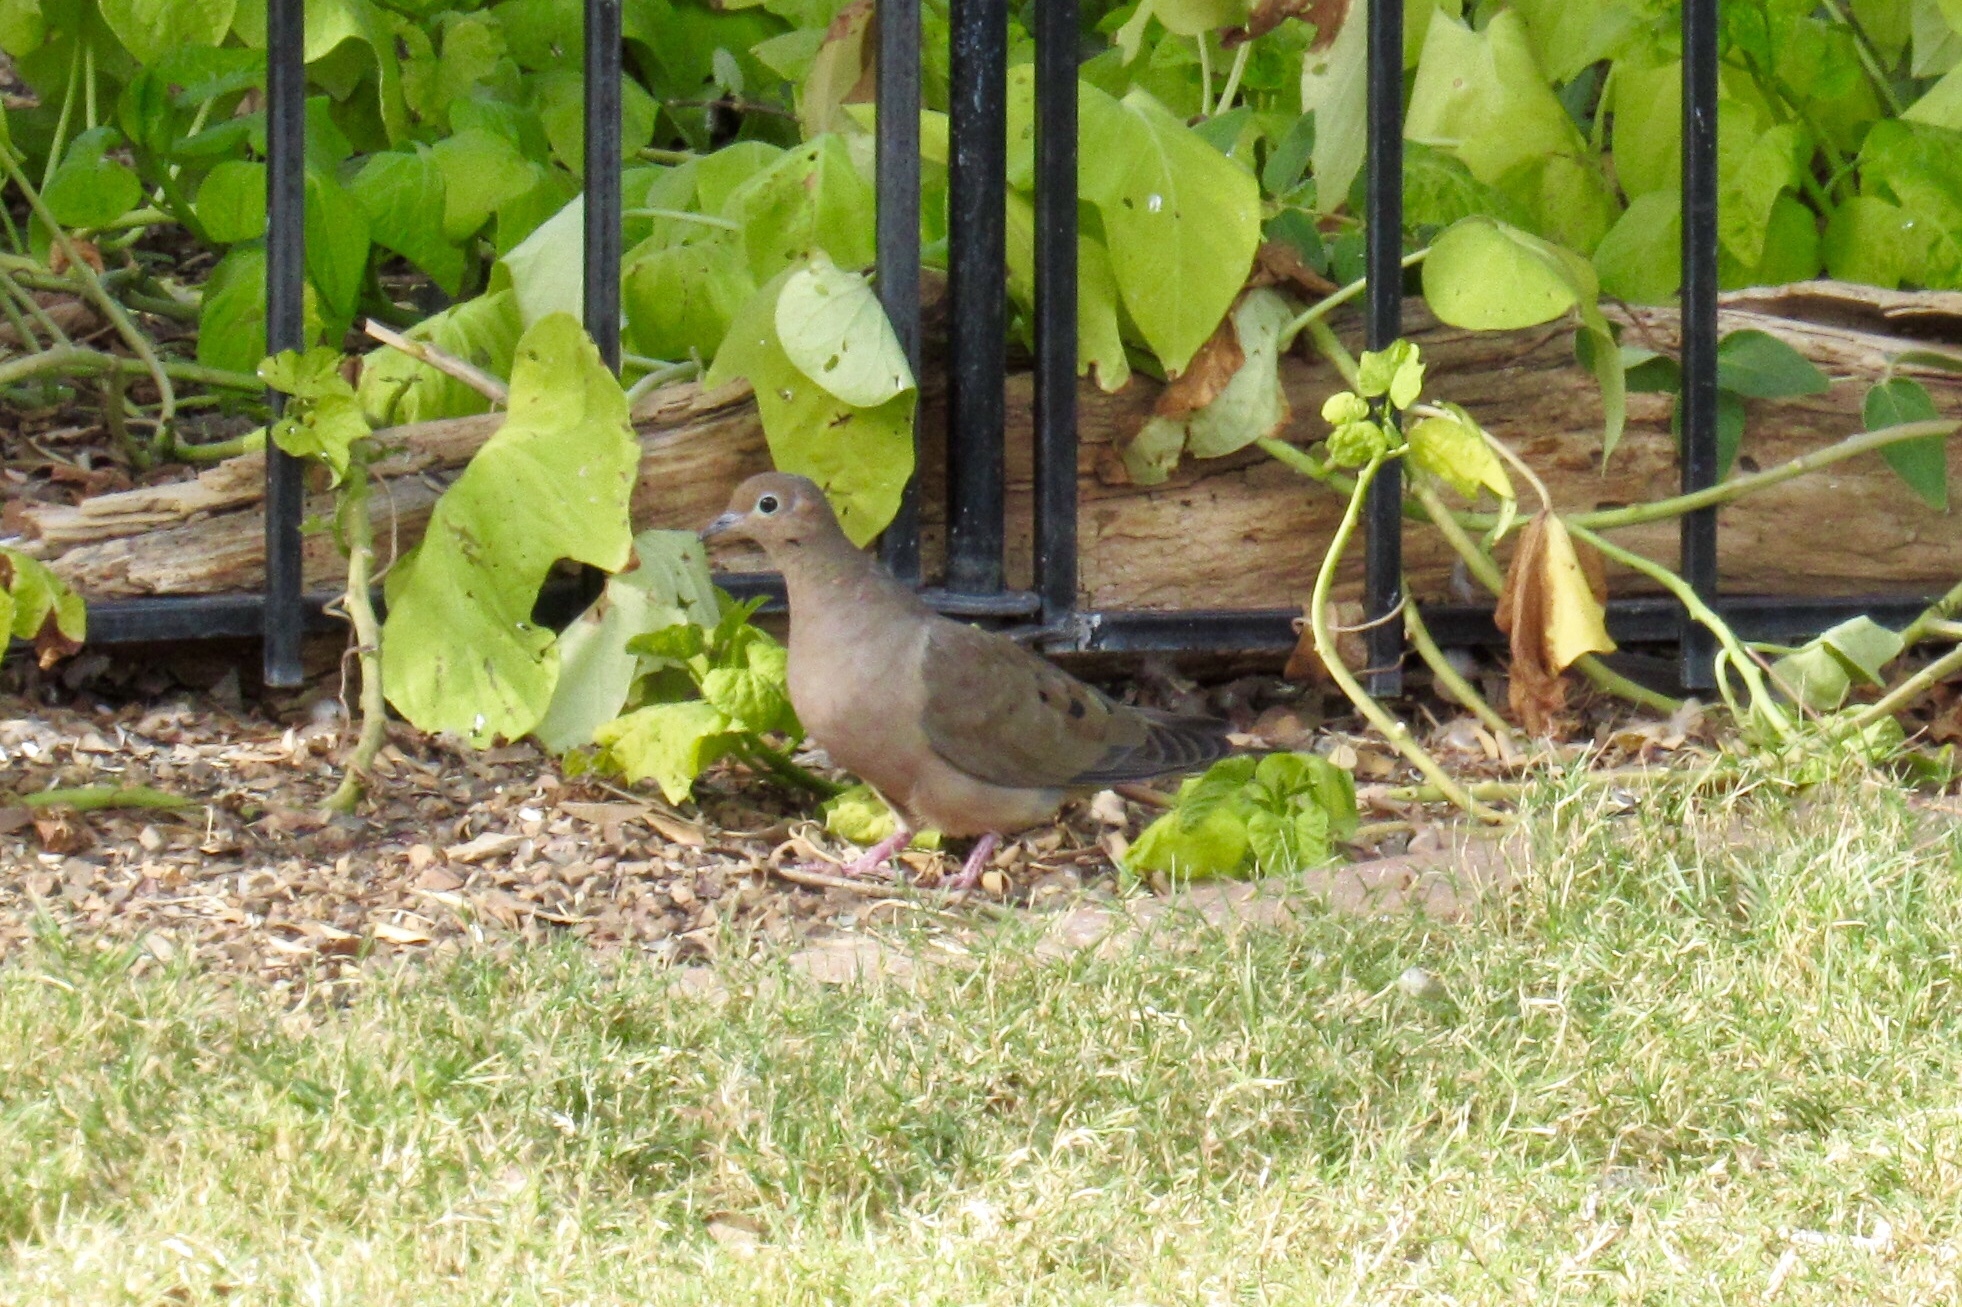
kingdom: Animalia
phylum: Chordata
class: Aves
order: Columbiformes
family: Columbidae
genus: Zenaida
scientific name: Zenaida macroura
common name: Mourning dove
